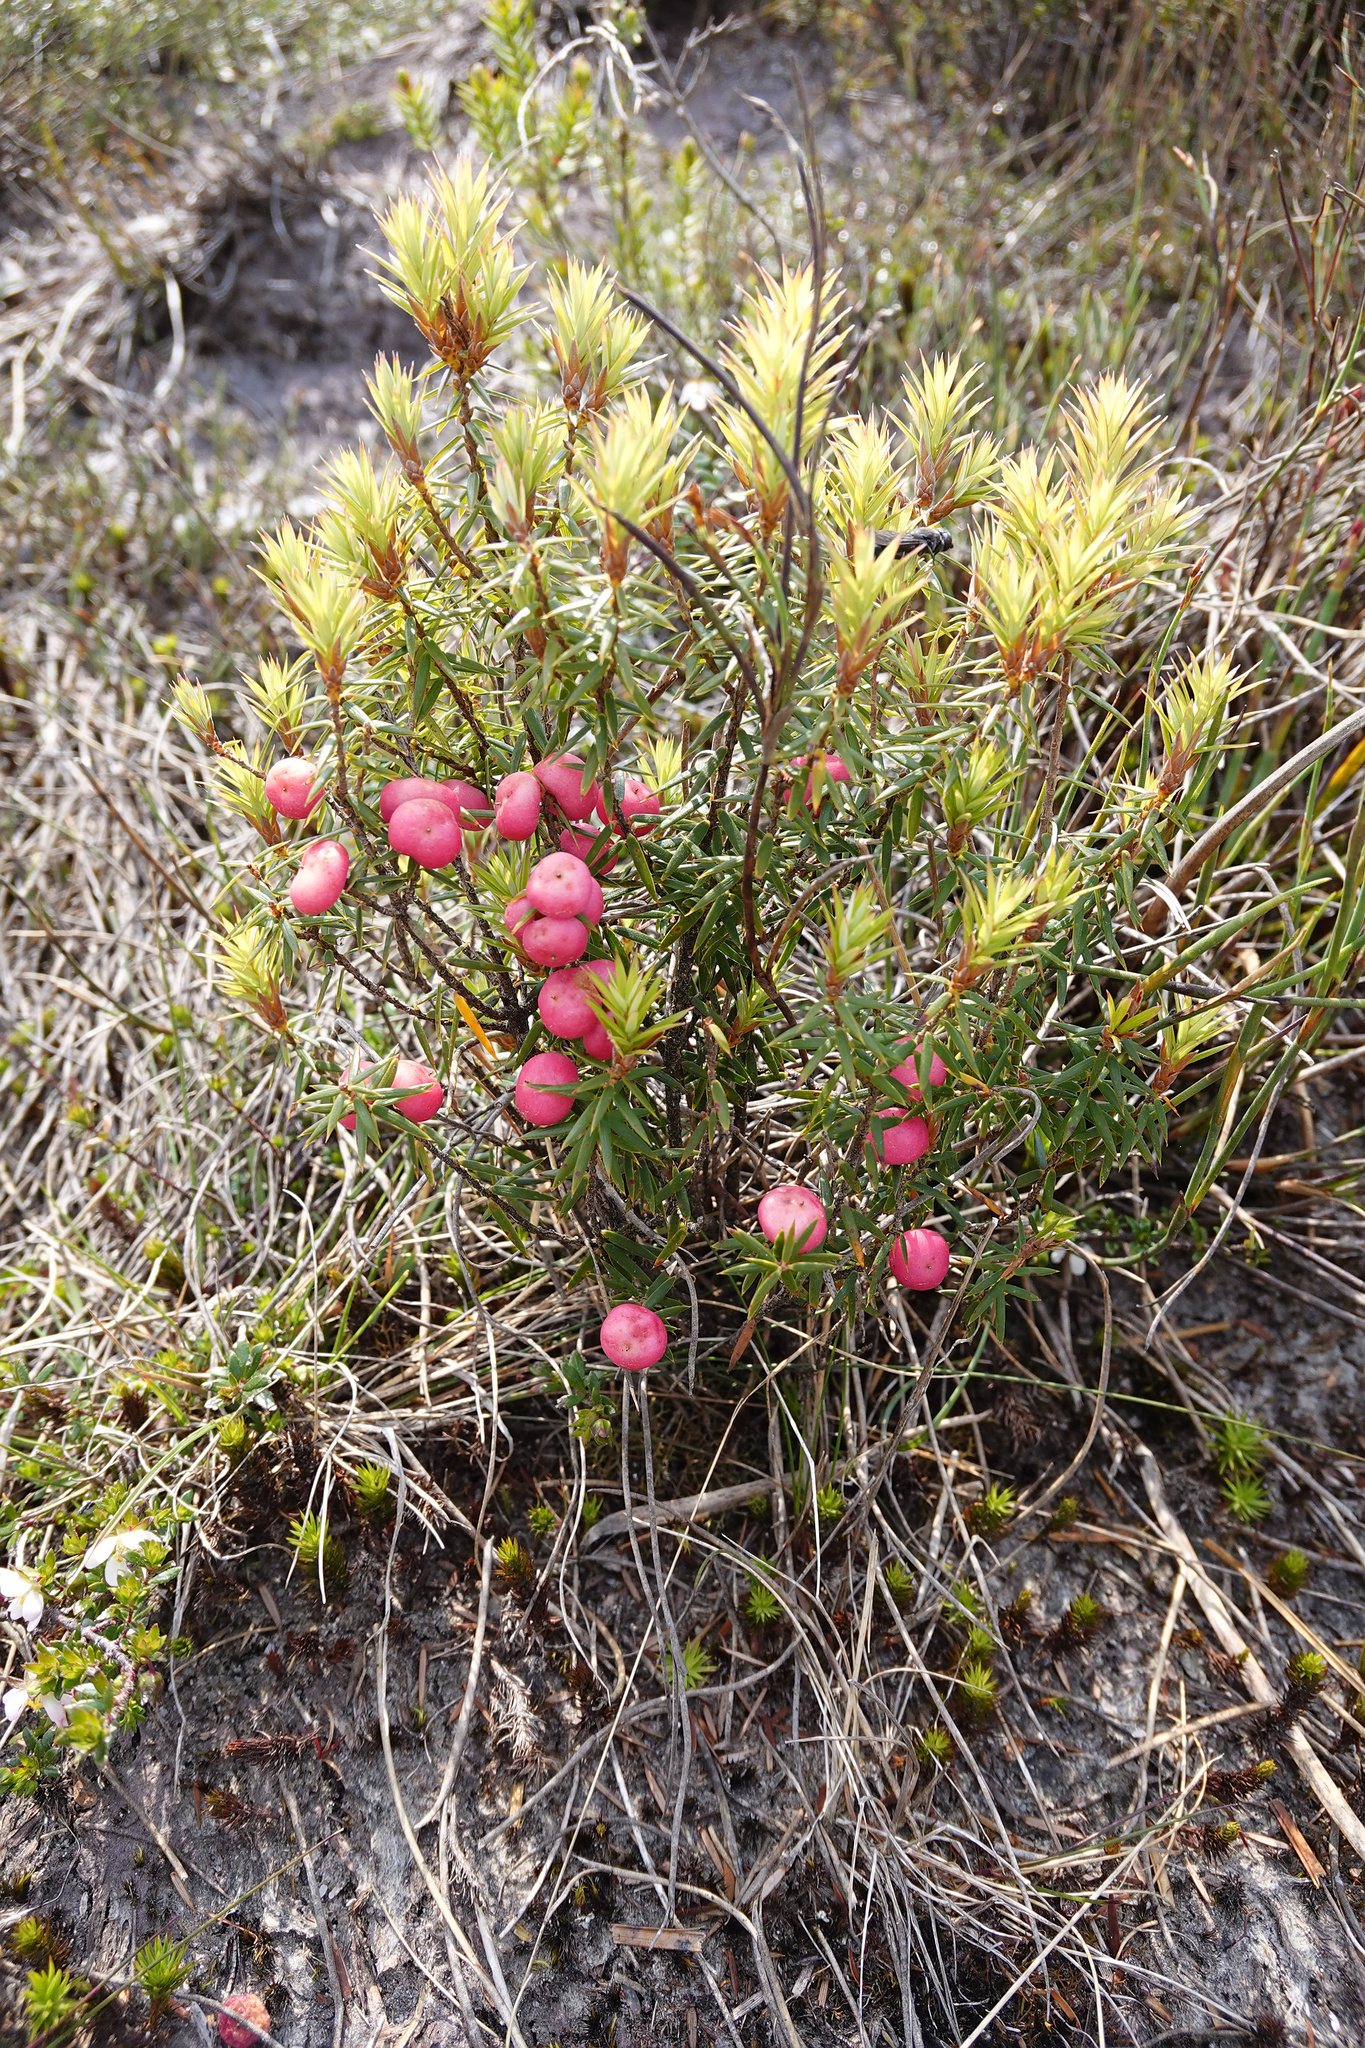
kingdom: Plantae
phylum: Tracheophyta
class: Magnoliopsida
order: Ericales
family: Ericaceae
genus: Leptecophylla
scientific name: Leptecophylla parvifolia
